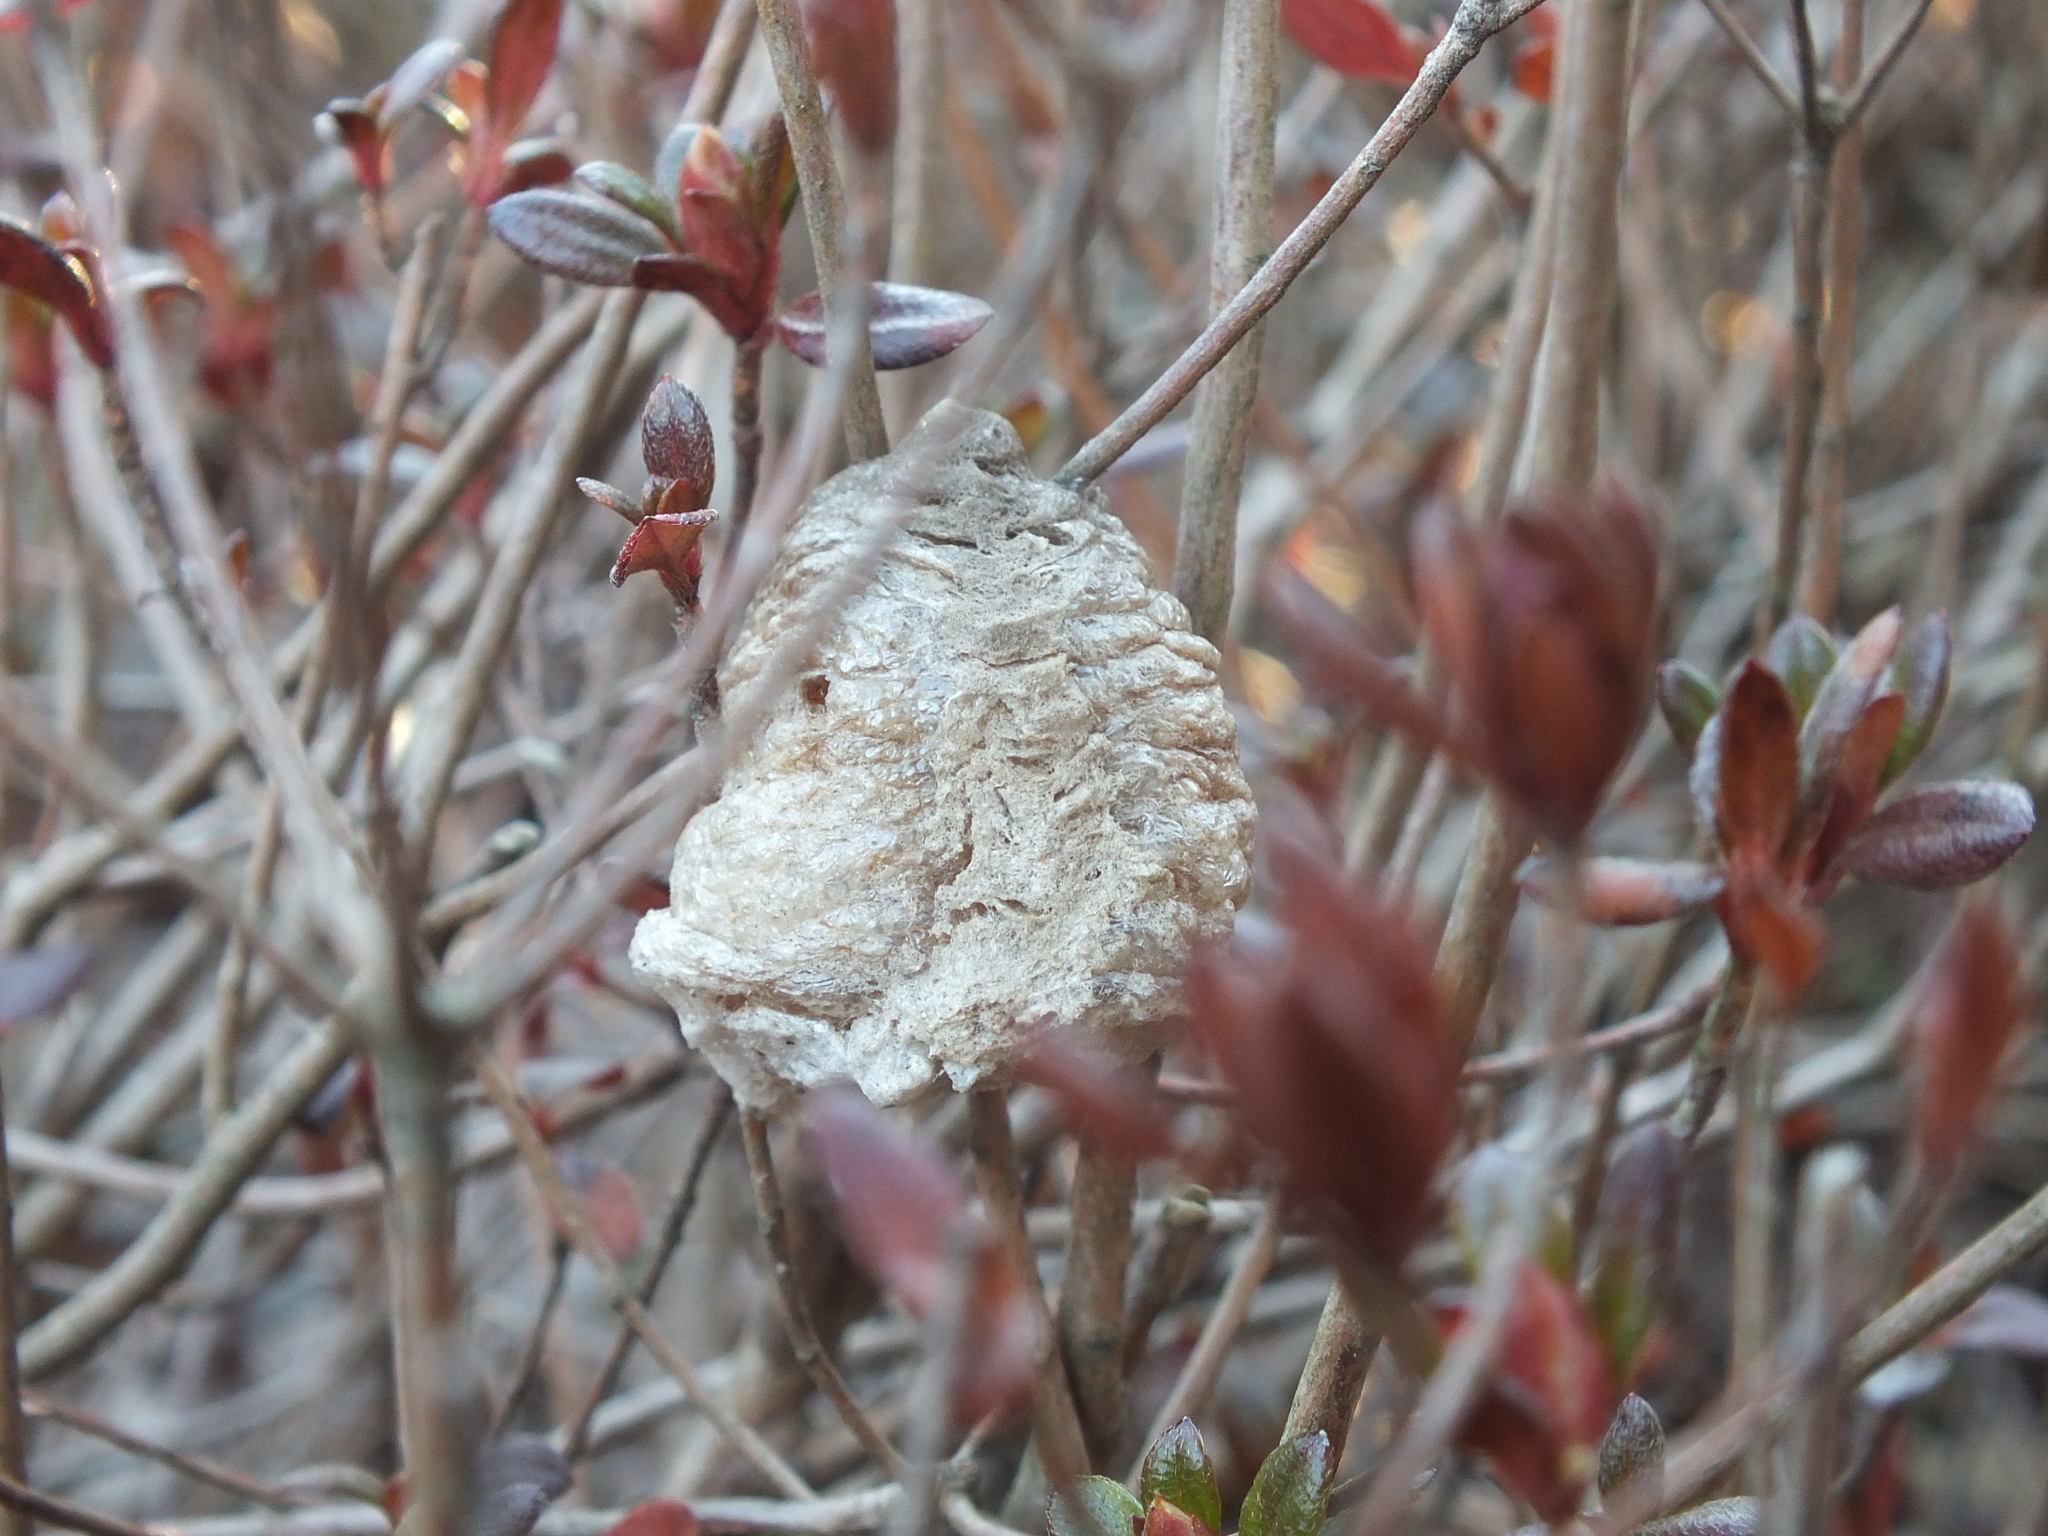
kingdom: Animalia
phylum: Arthropoda
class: Insecta
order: Mantodea
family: Mantidae
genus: Tenodera
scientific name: Tenodera sinensis
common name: Chinese mantis
